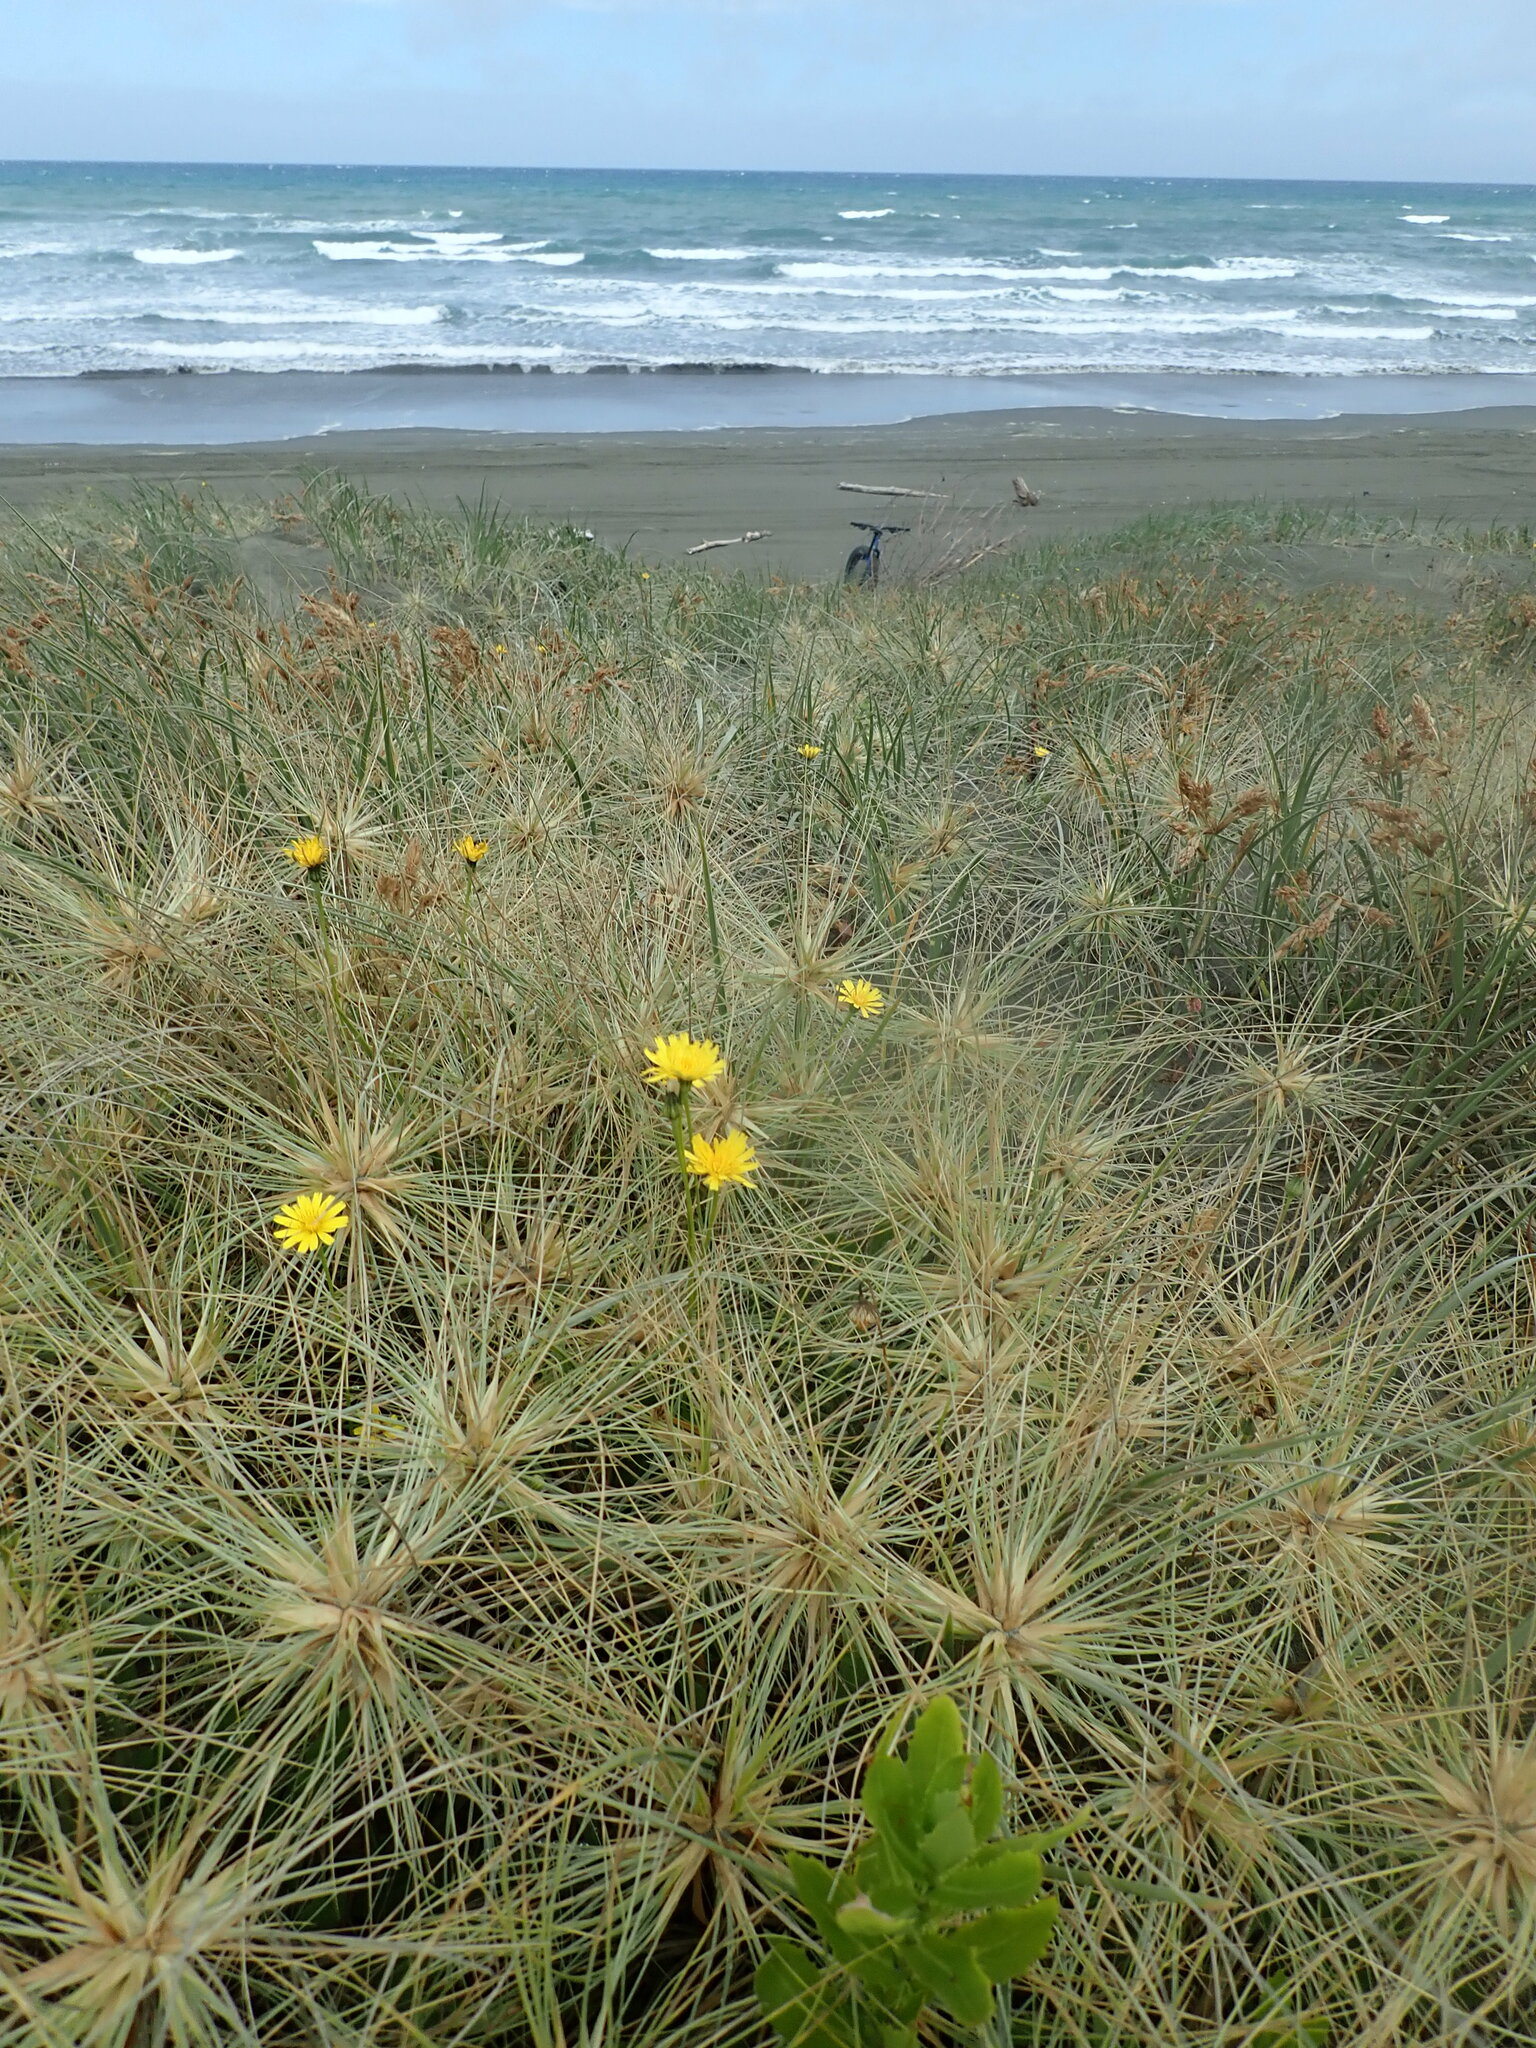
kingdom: Plantae
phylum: Tracheophyta
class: Magnoliopsida
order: Asterales
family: Asteraceae
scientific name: Asteraceae
